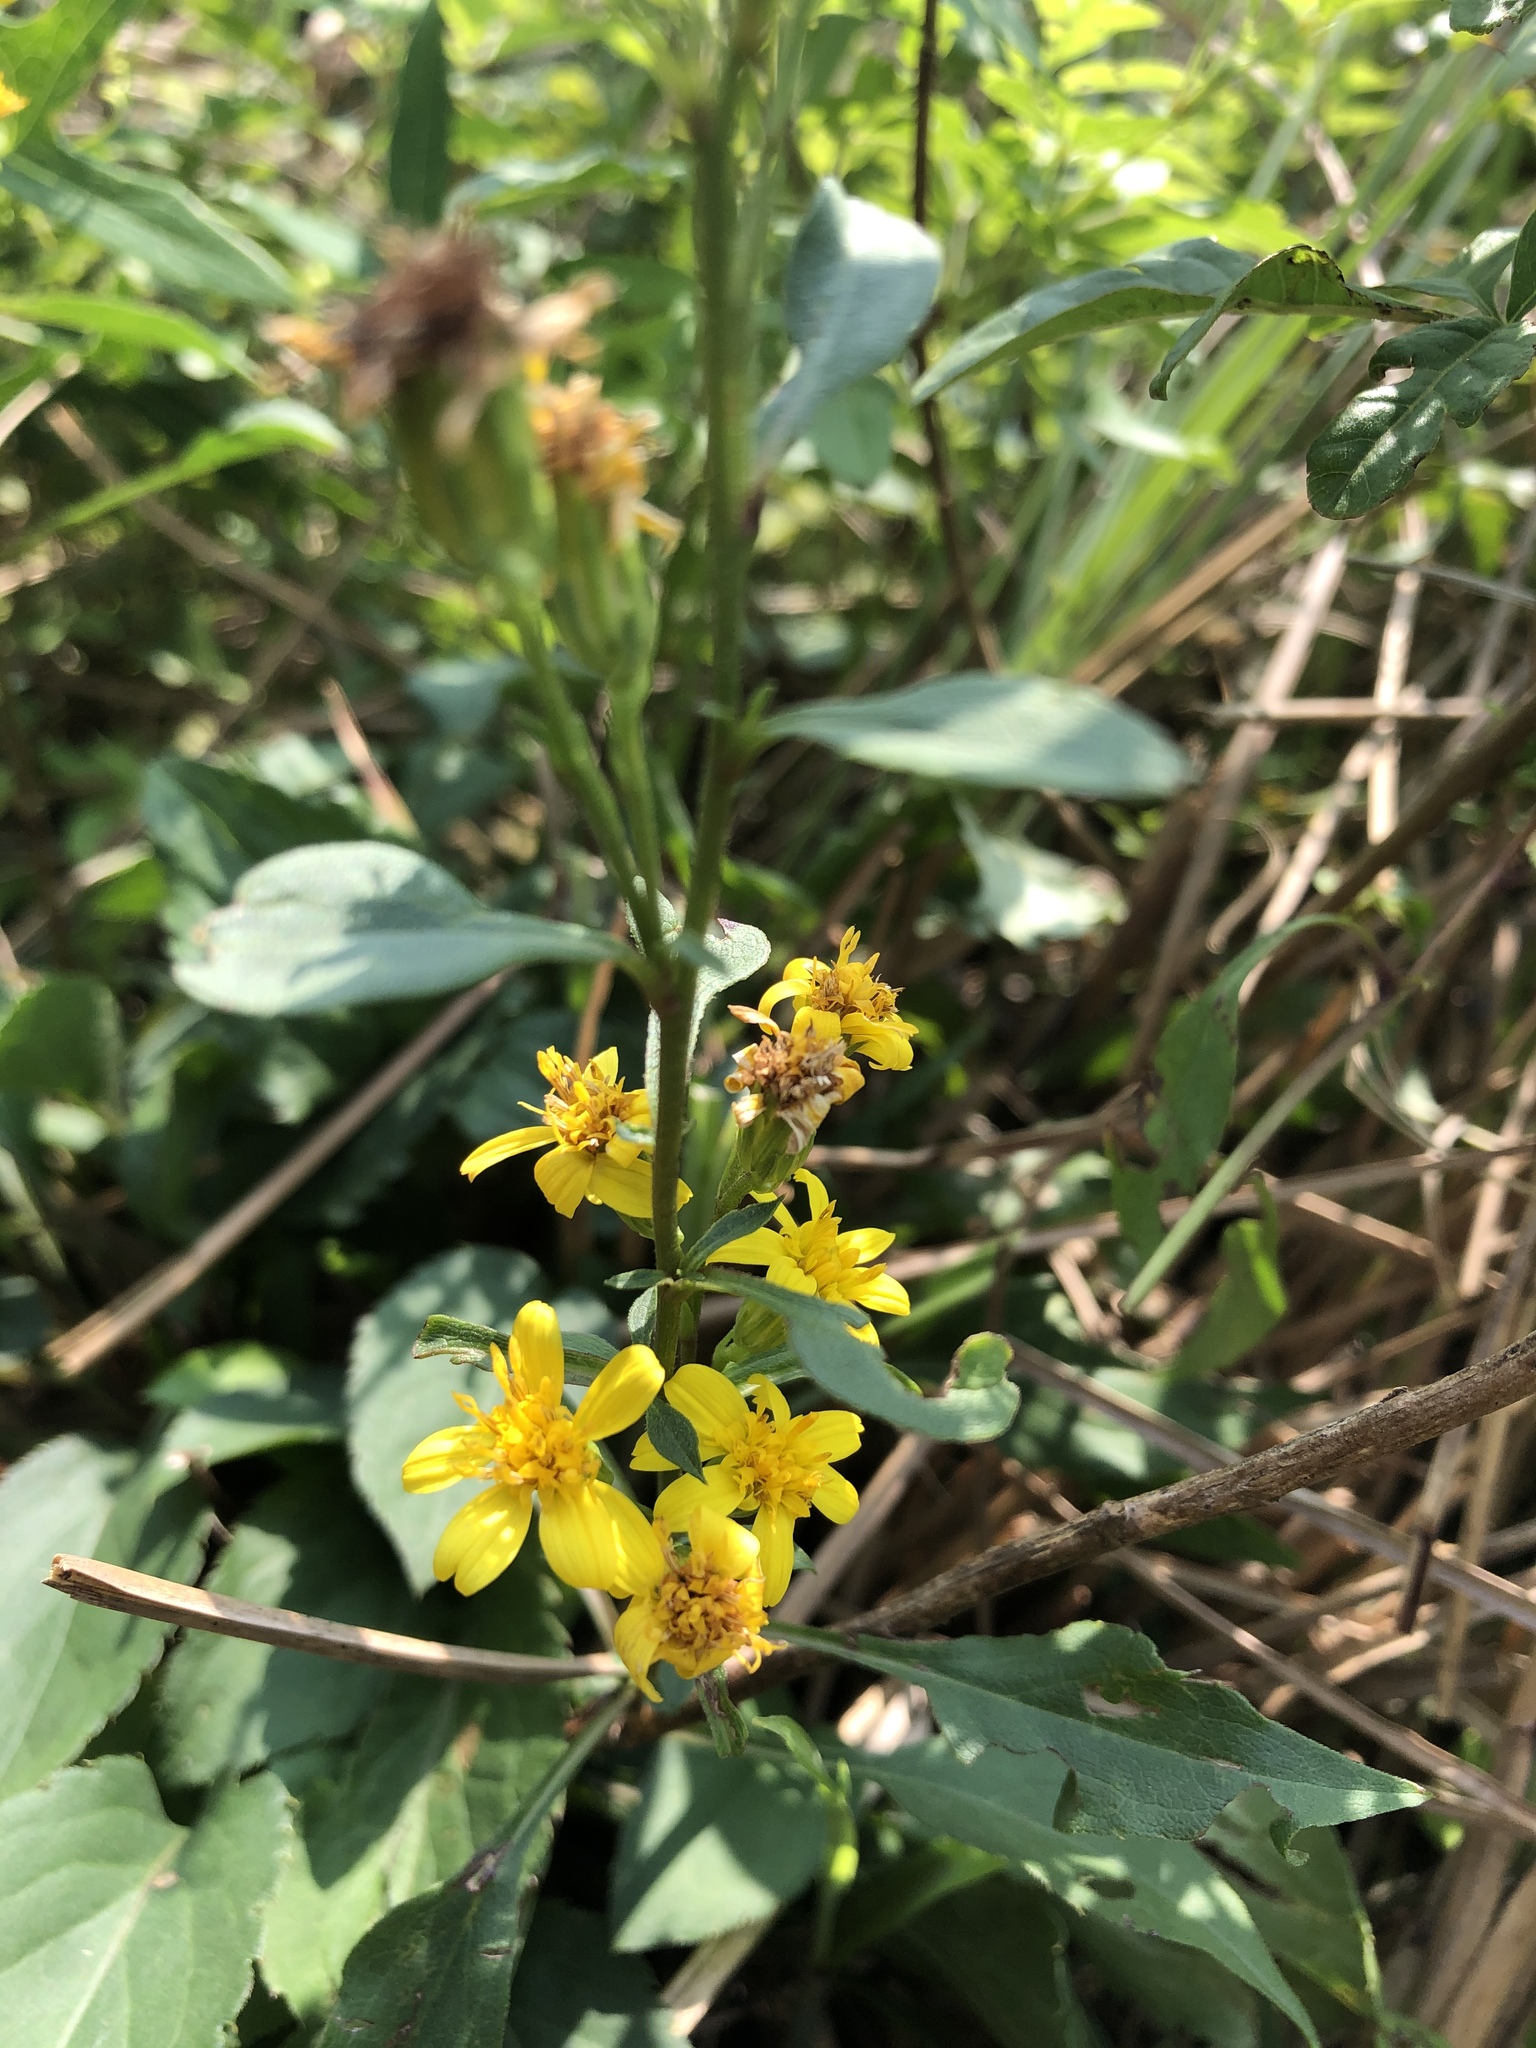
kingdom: Plantae
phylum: Tracheophyta
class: Magnoliopsida
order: Asterales
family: Asteraceae
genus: Solidago
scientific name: Solidago decurrens
